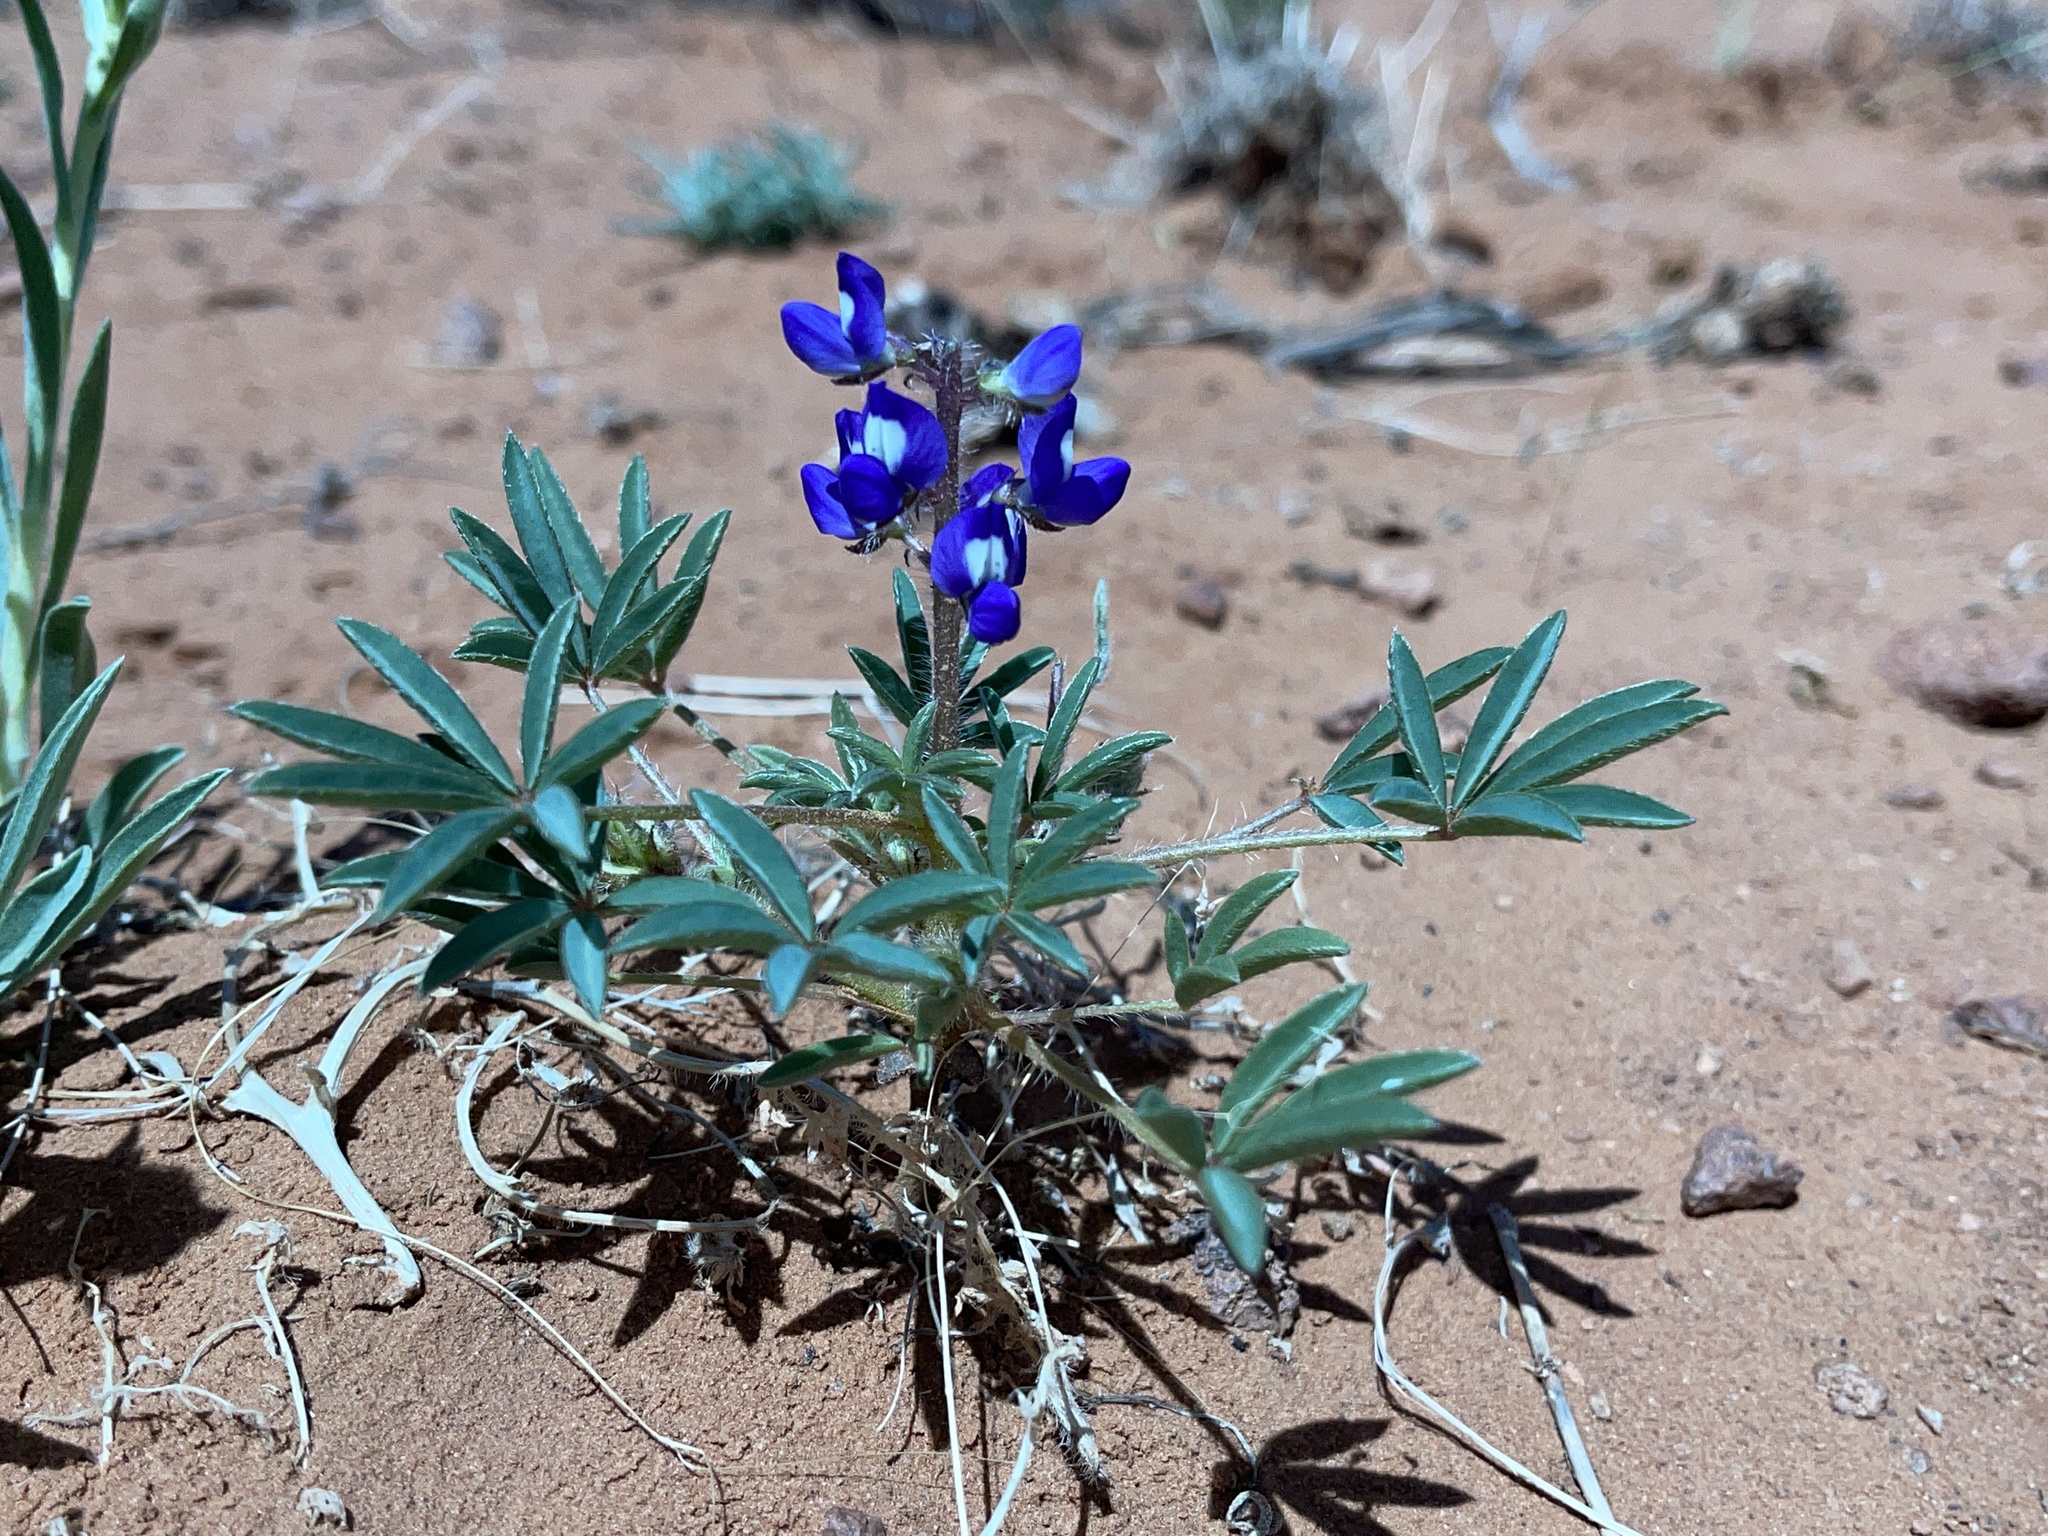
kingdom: Plantae
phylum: Tracheophyta
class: Magnoliopsida
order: Fabales
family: Fabaceae
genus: Lupinus
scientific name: Lupinus pusillus
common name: Low lupine
